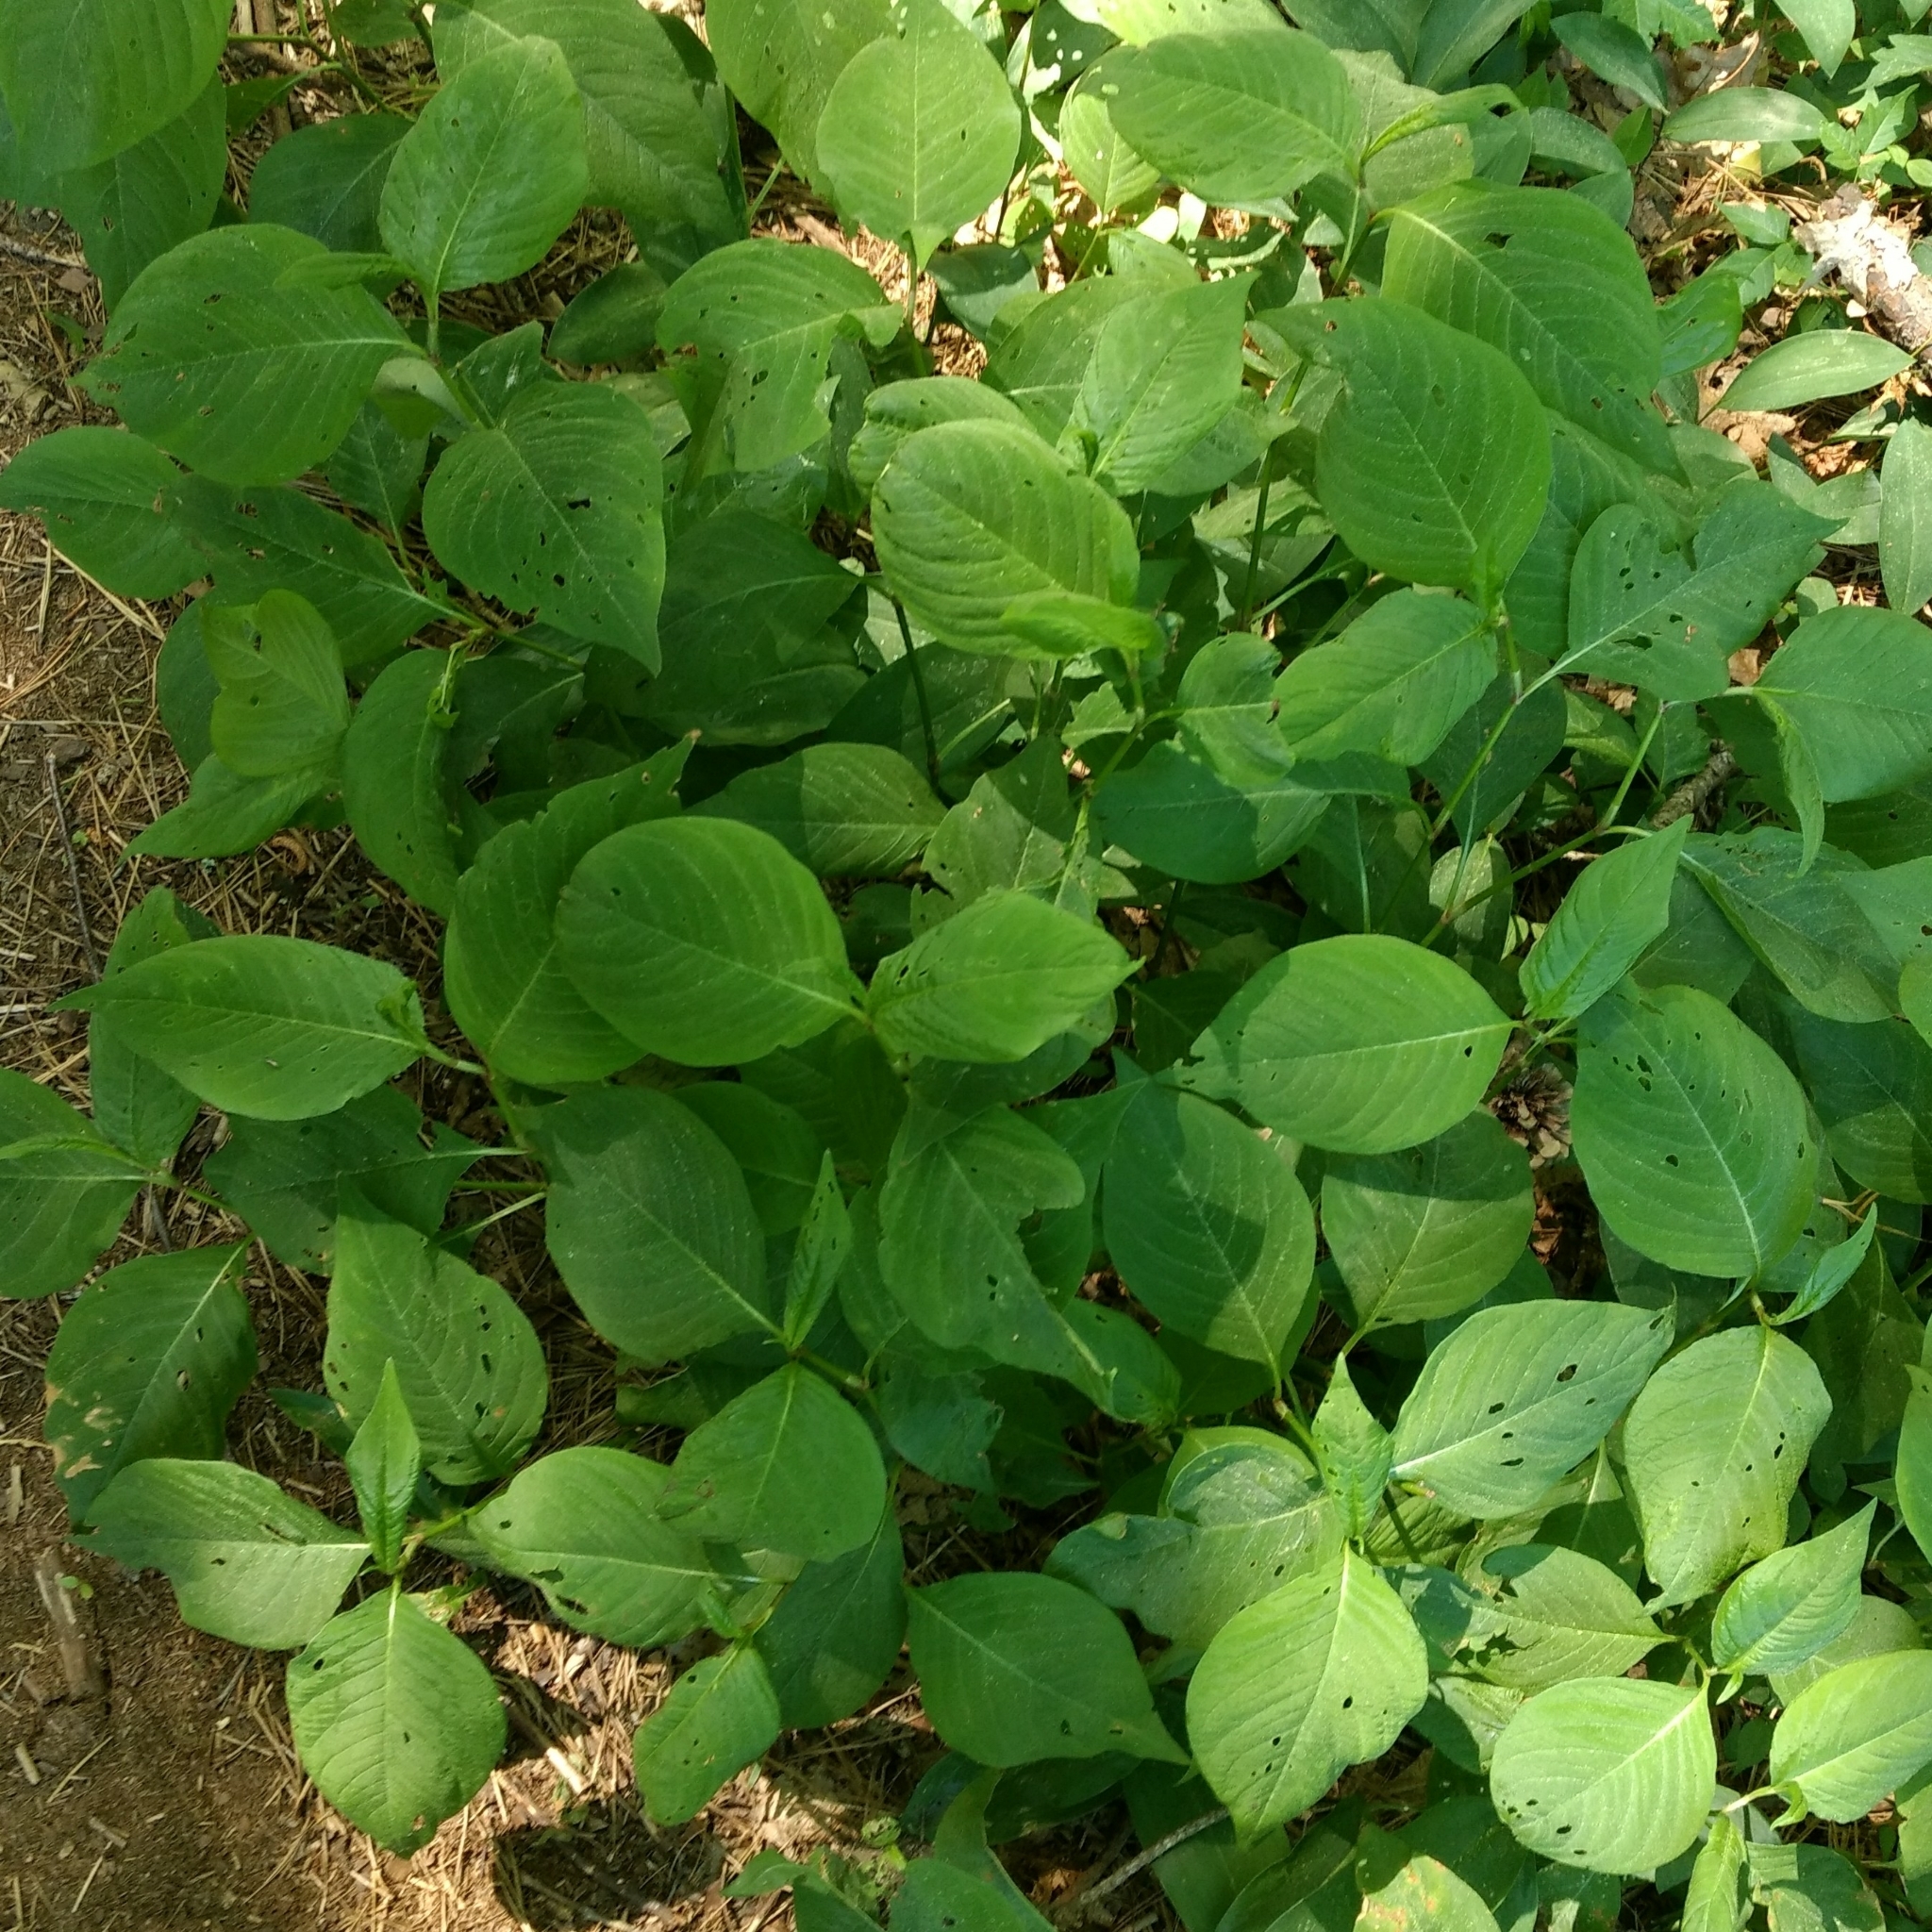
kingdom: Plantae
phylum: Tracheophyta
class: Magnoliopsida
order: Caryophyllales
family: Polygonaceae
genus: Persicaria
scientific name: Persicaria virginiana
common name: Jumpseed
